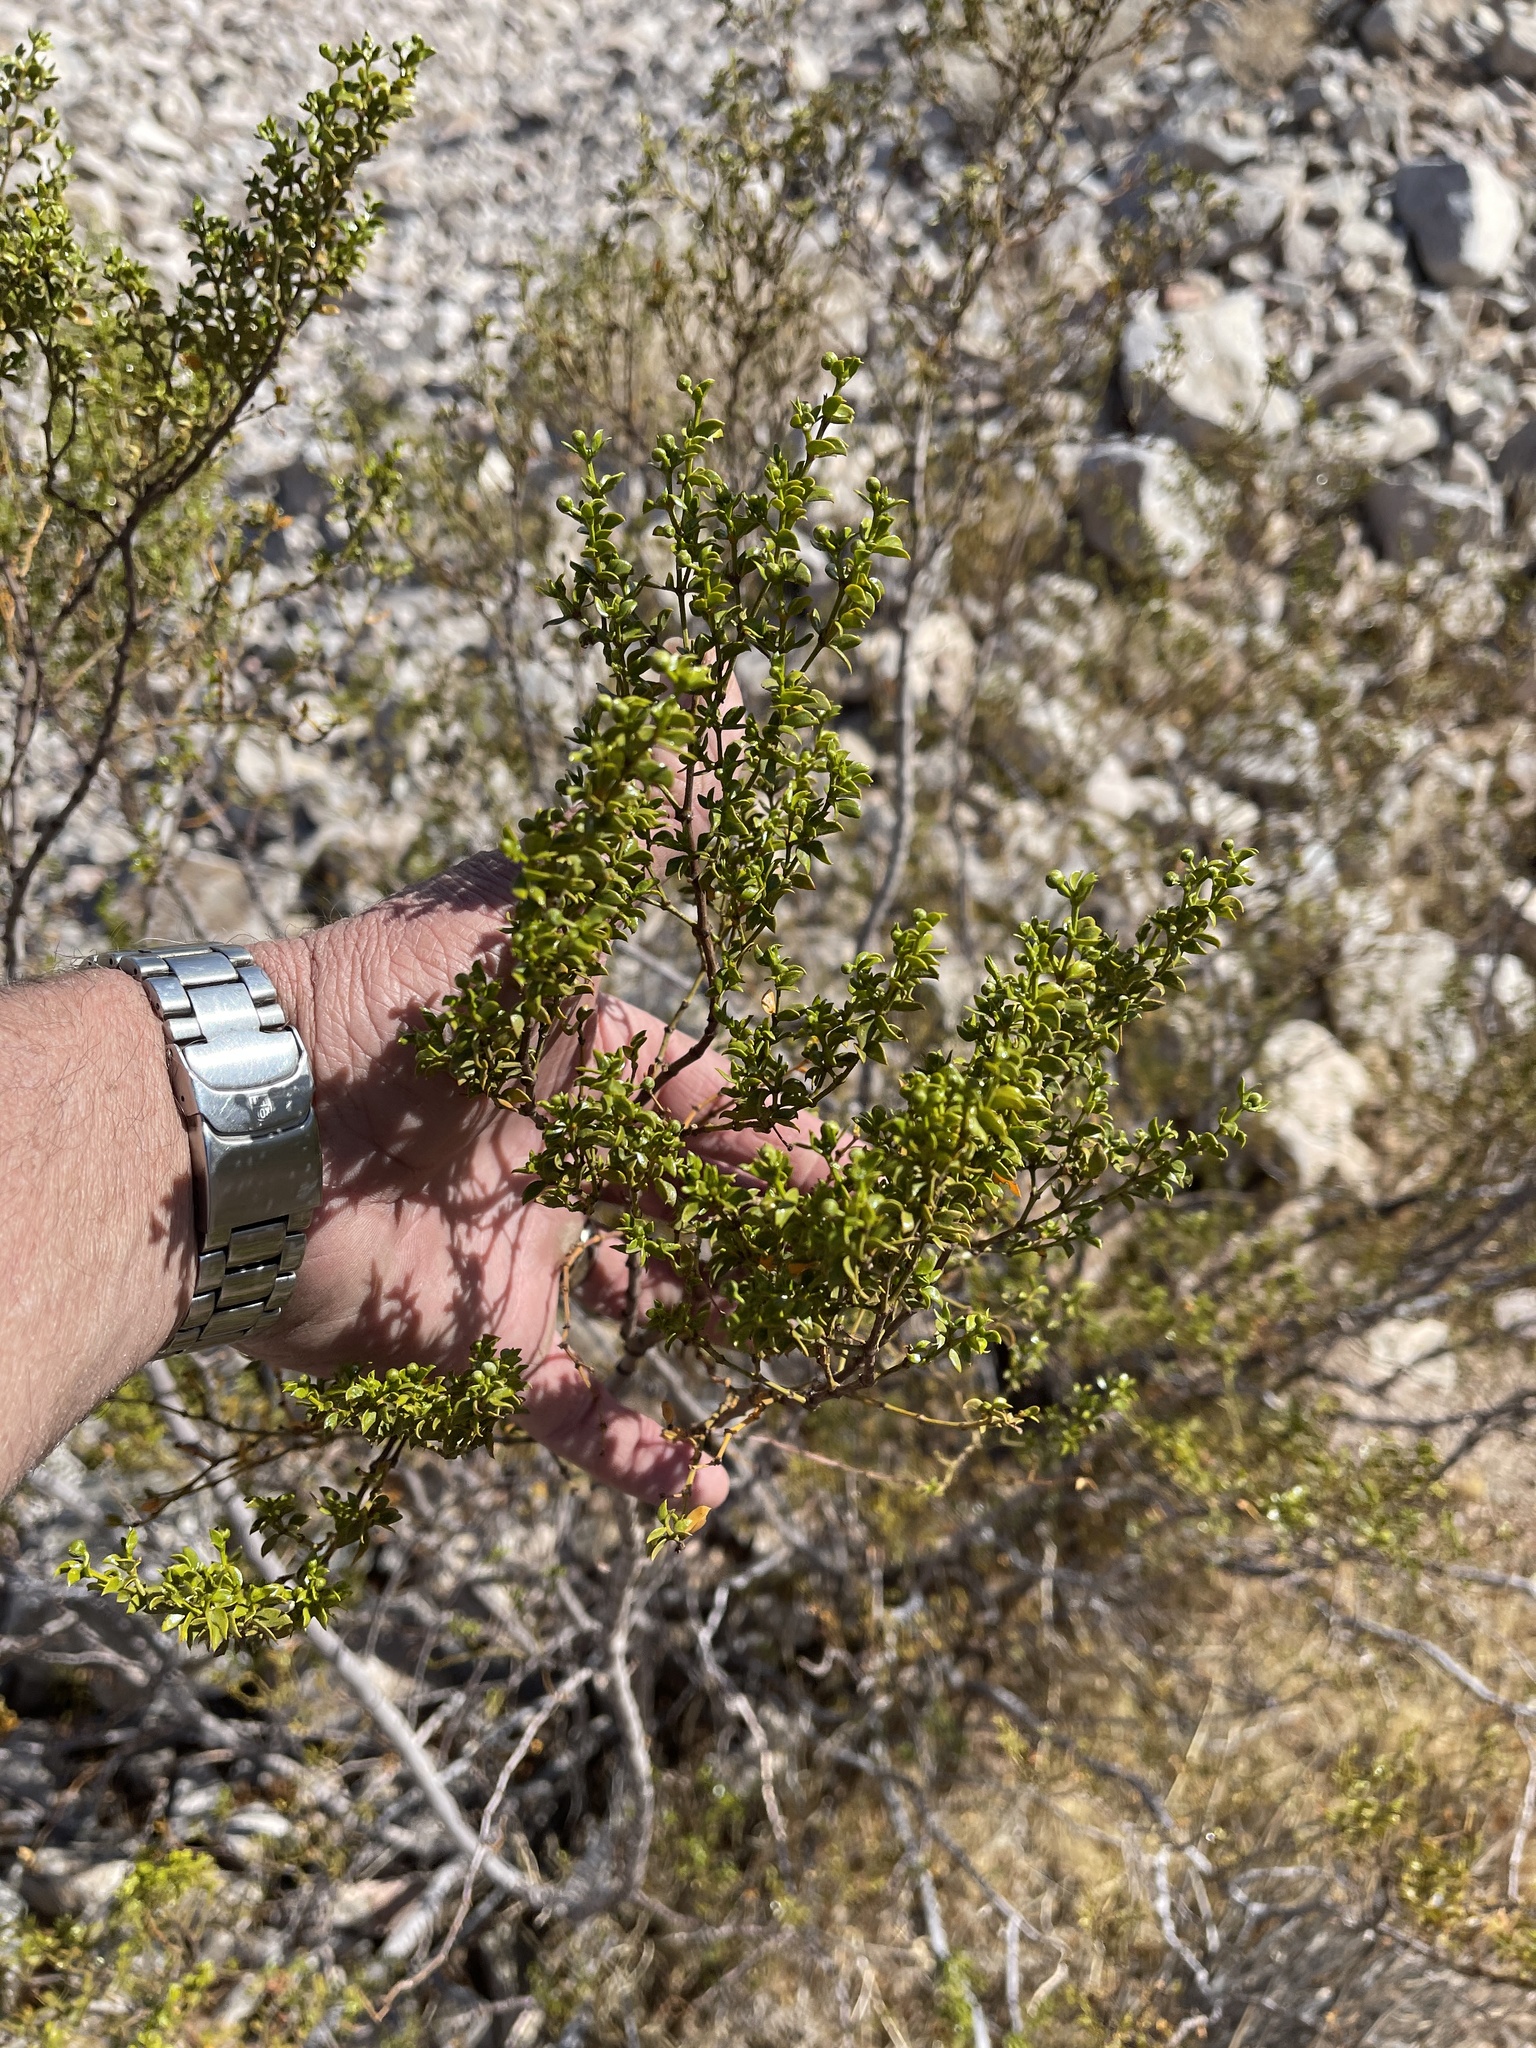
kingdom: Plantae
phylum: Tracheophyta
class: Magnoliopsida
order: Zygophyllales
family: Zygophyllaceae
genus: Larrea
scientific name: Larrea tridentata
